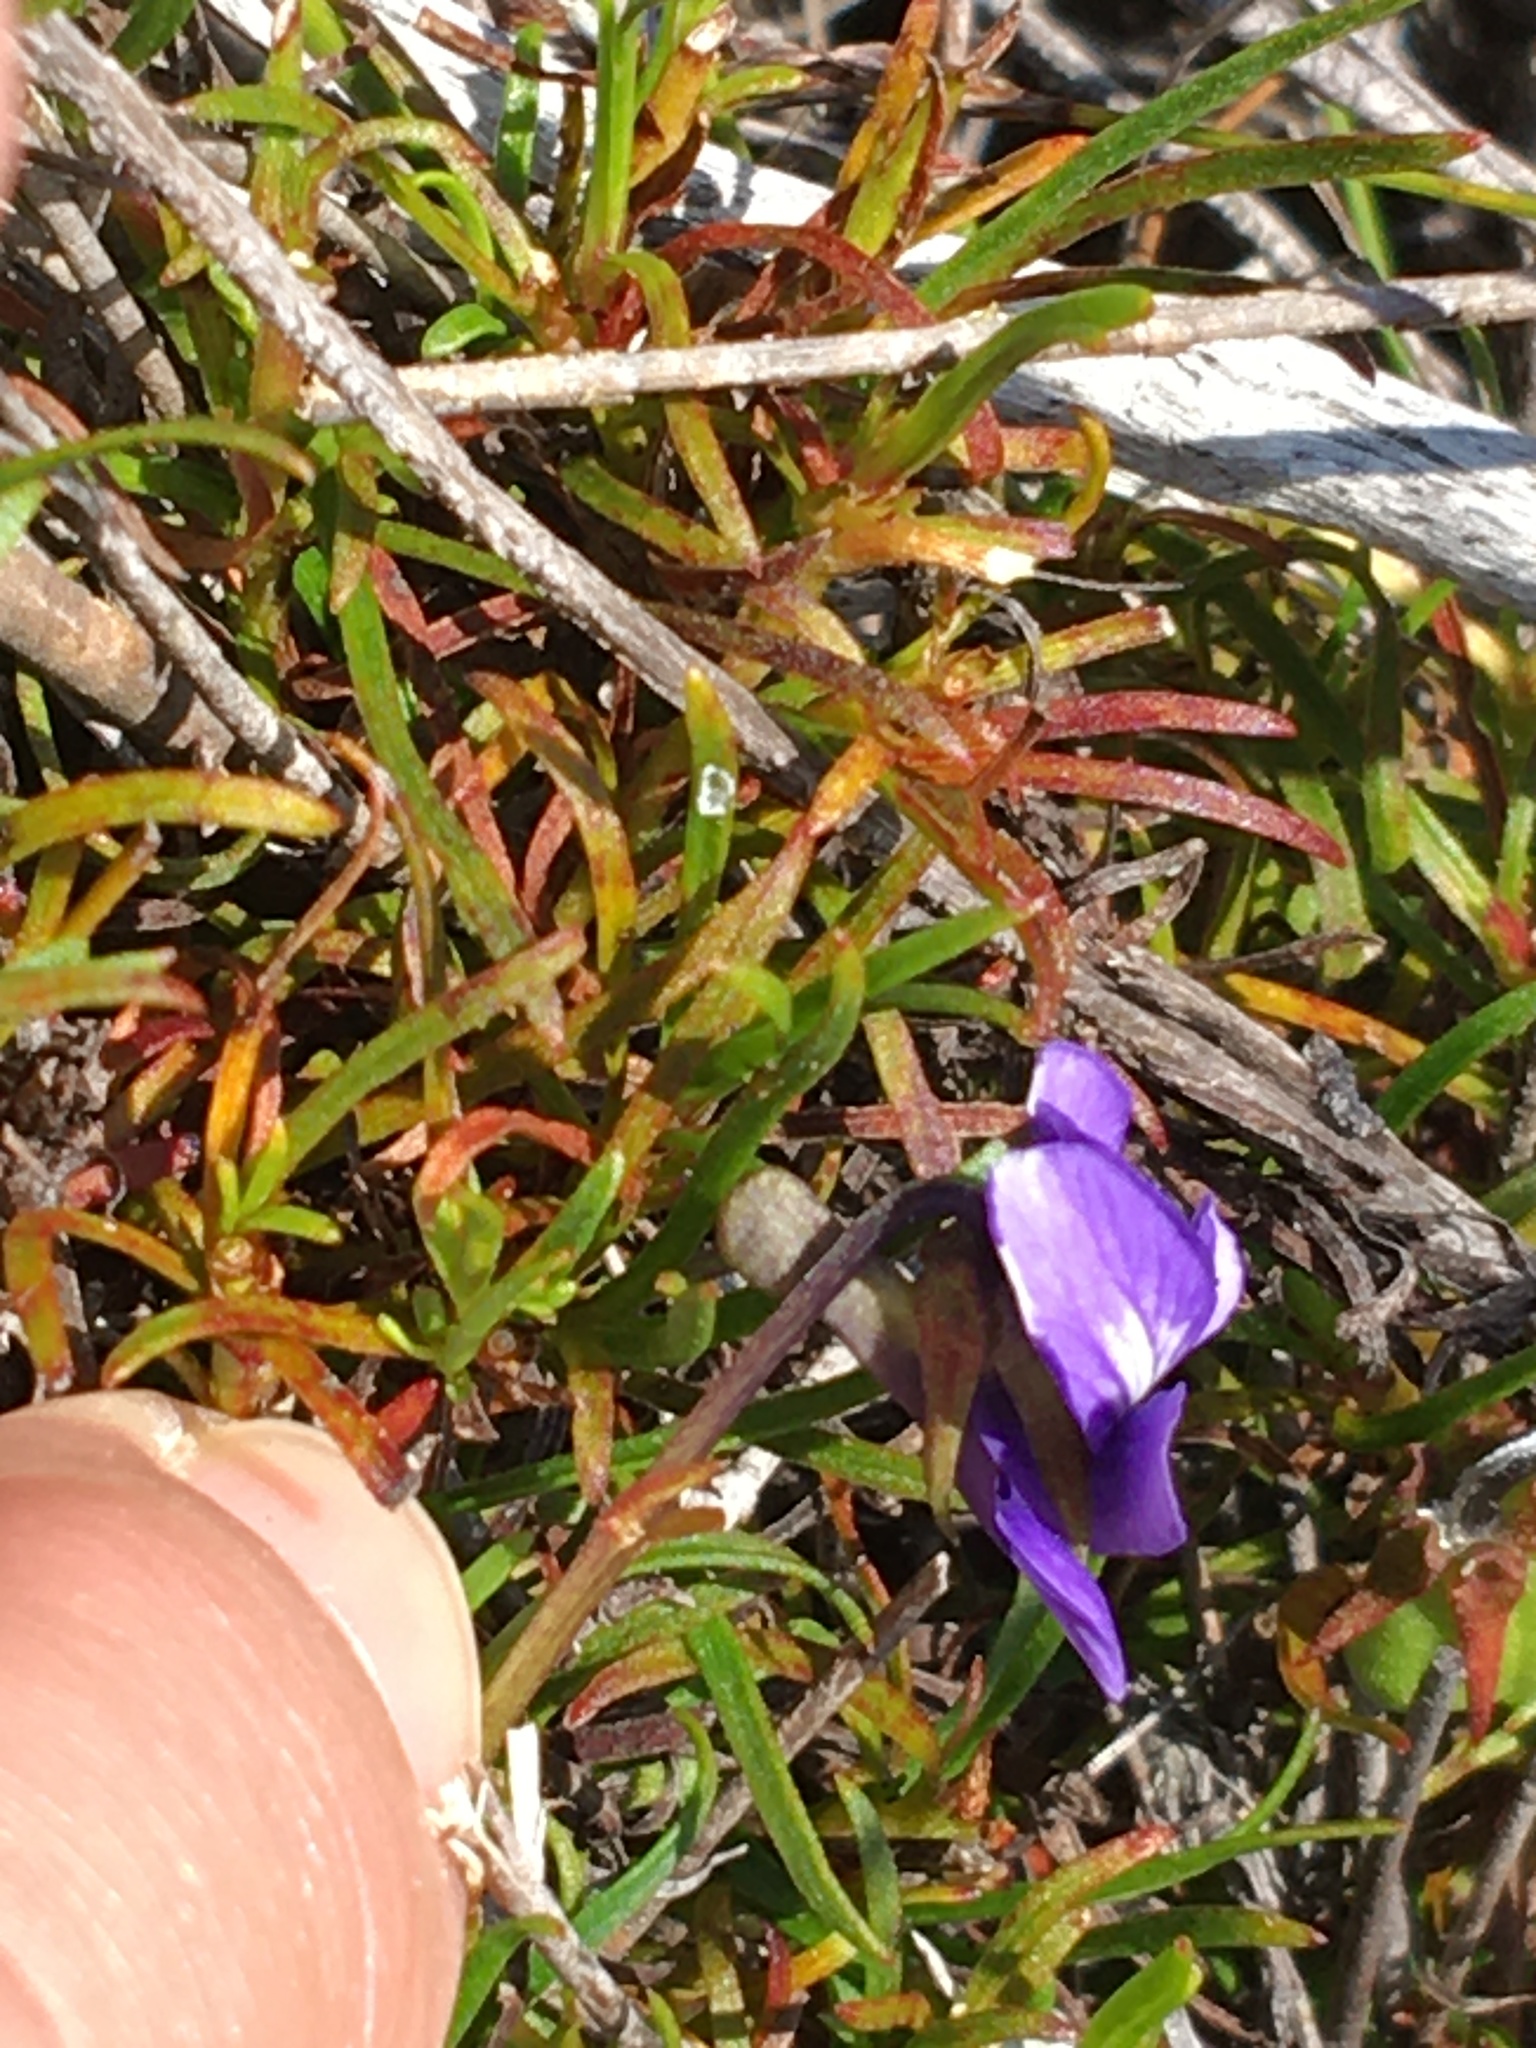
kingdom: Plantae
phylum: Tracheophyta
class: Magnoliopsida
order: Malpighiales
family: Violaceae
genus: Viola
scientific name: Viola decumbens
